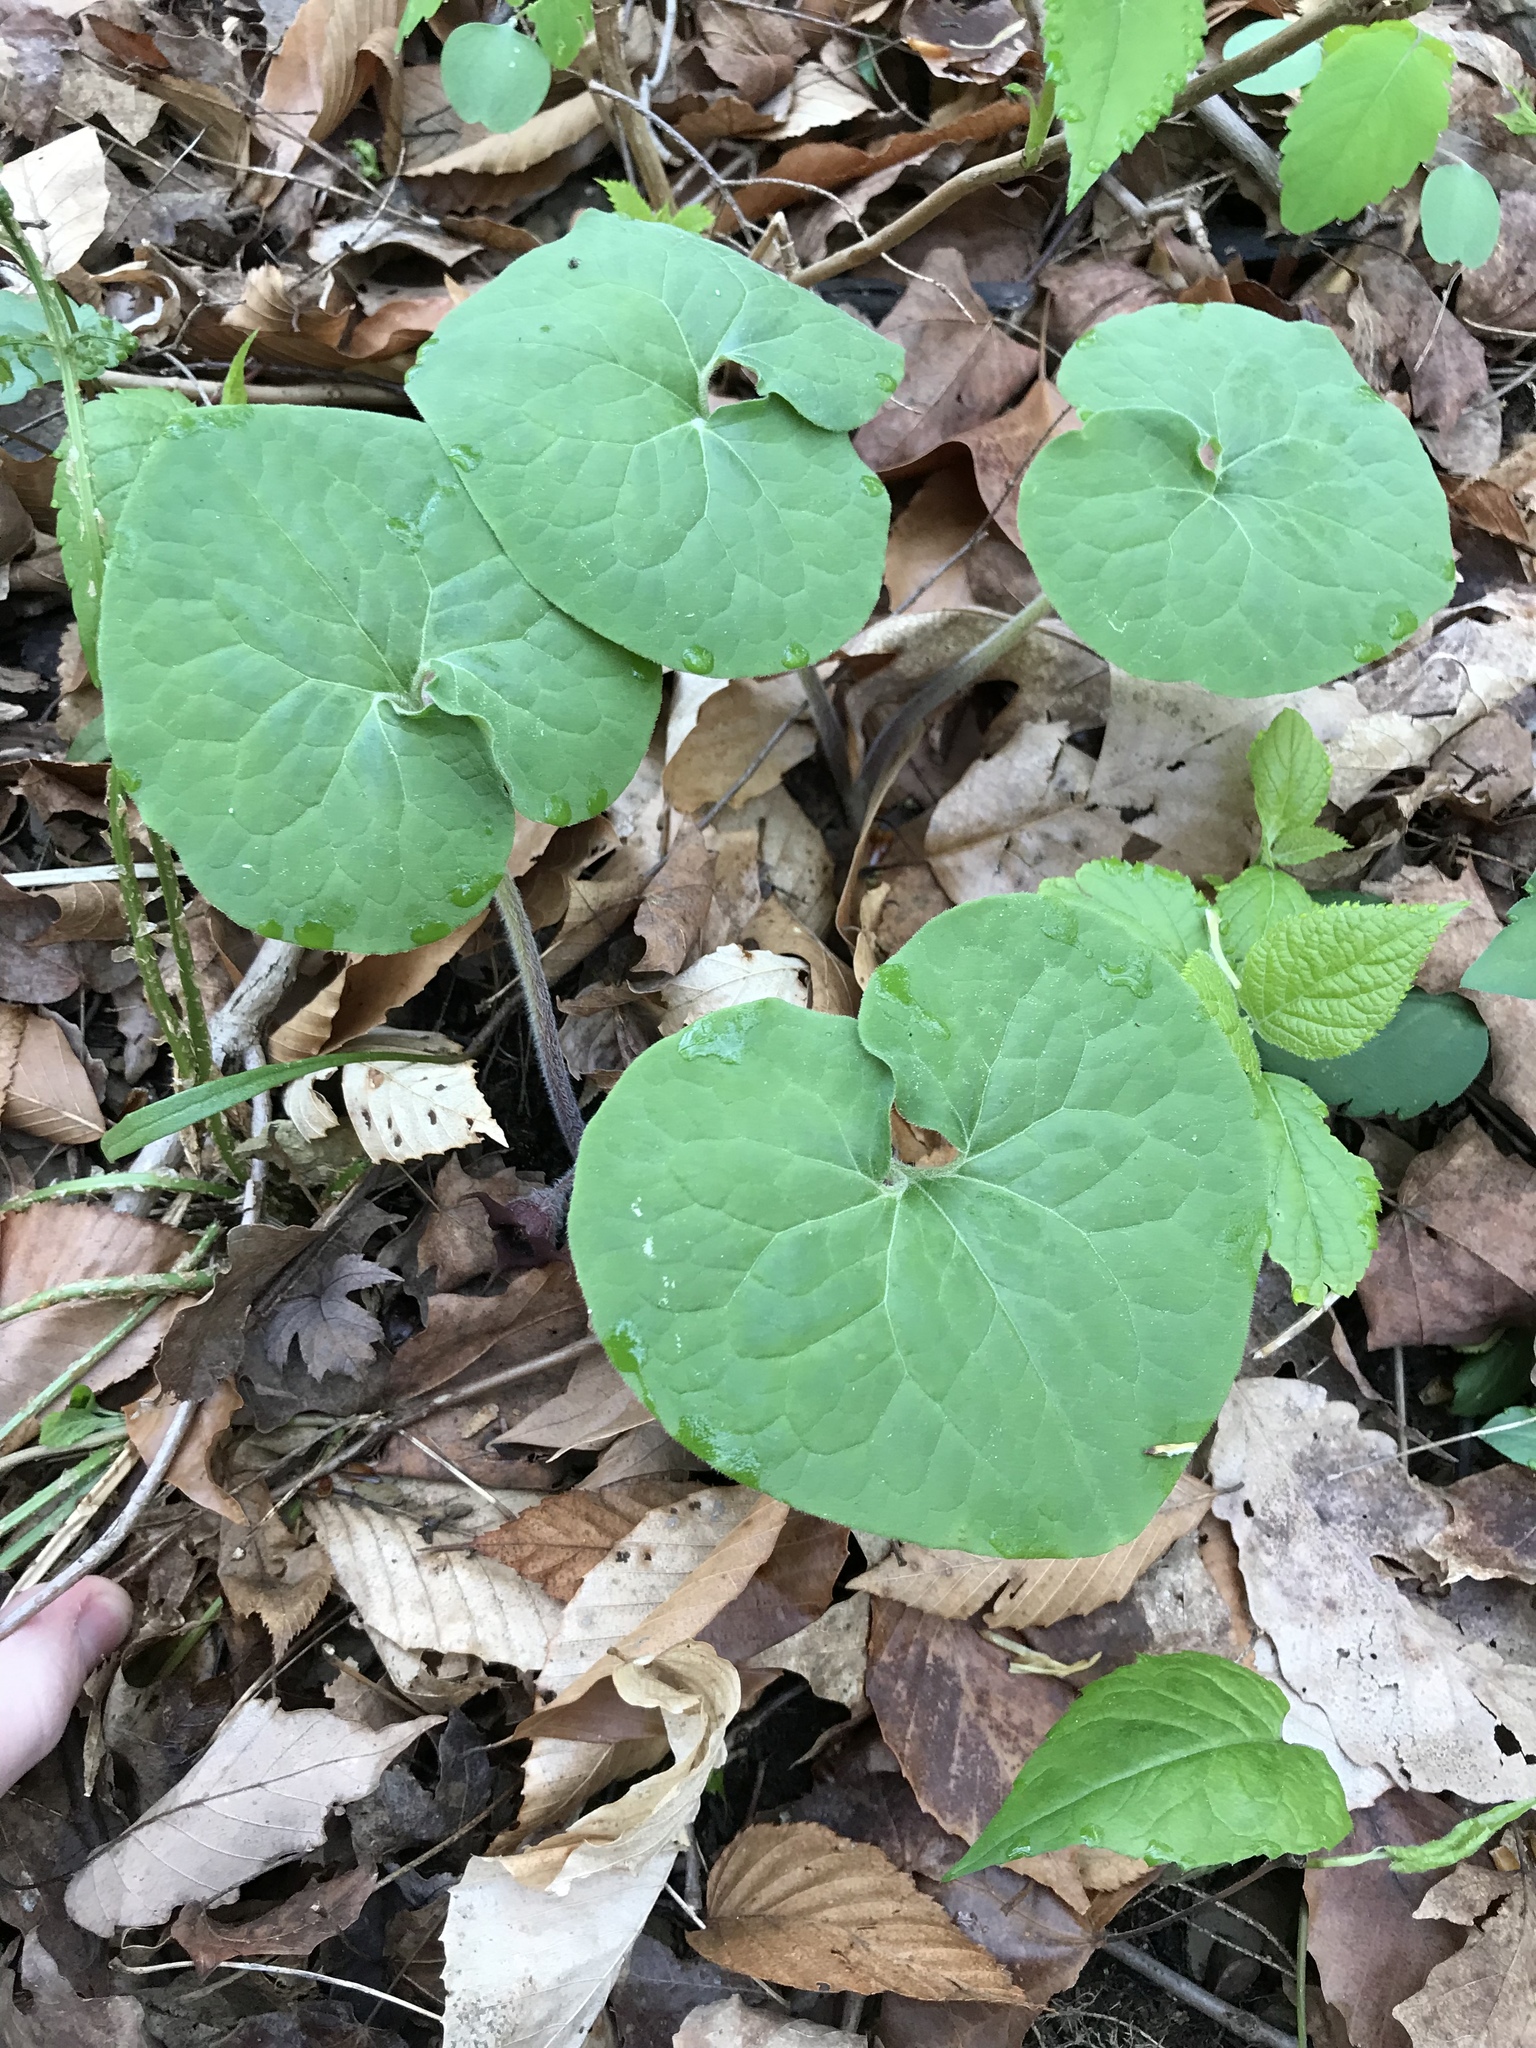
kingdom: Plantae
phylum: Tracheophyta
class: Magnoliopsida
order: Piperales
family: Aristolochiaceae
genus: Asarum
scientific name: Asarum canadense
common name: Wild ginger
